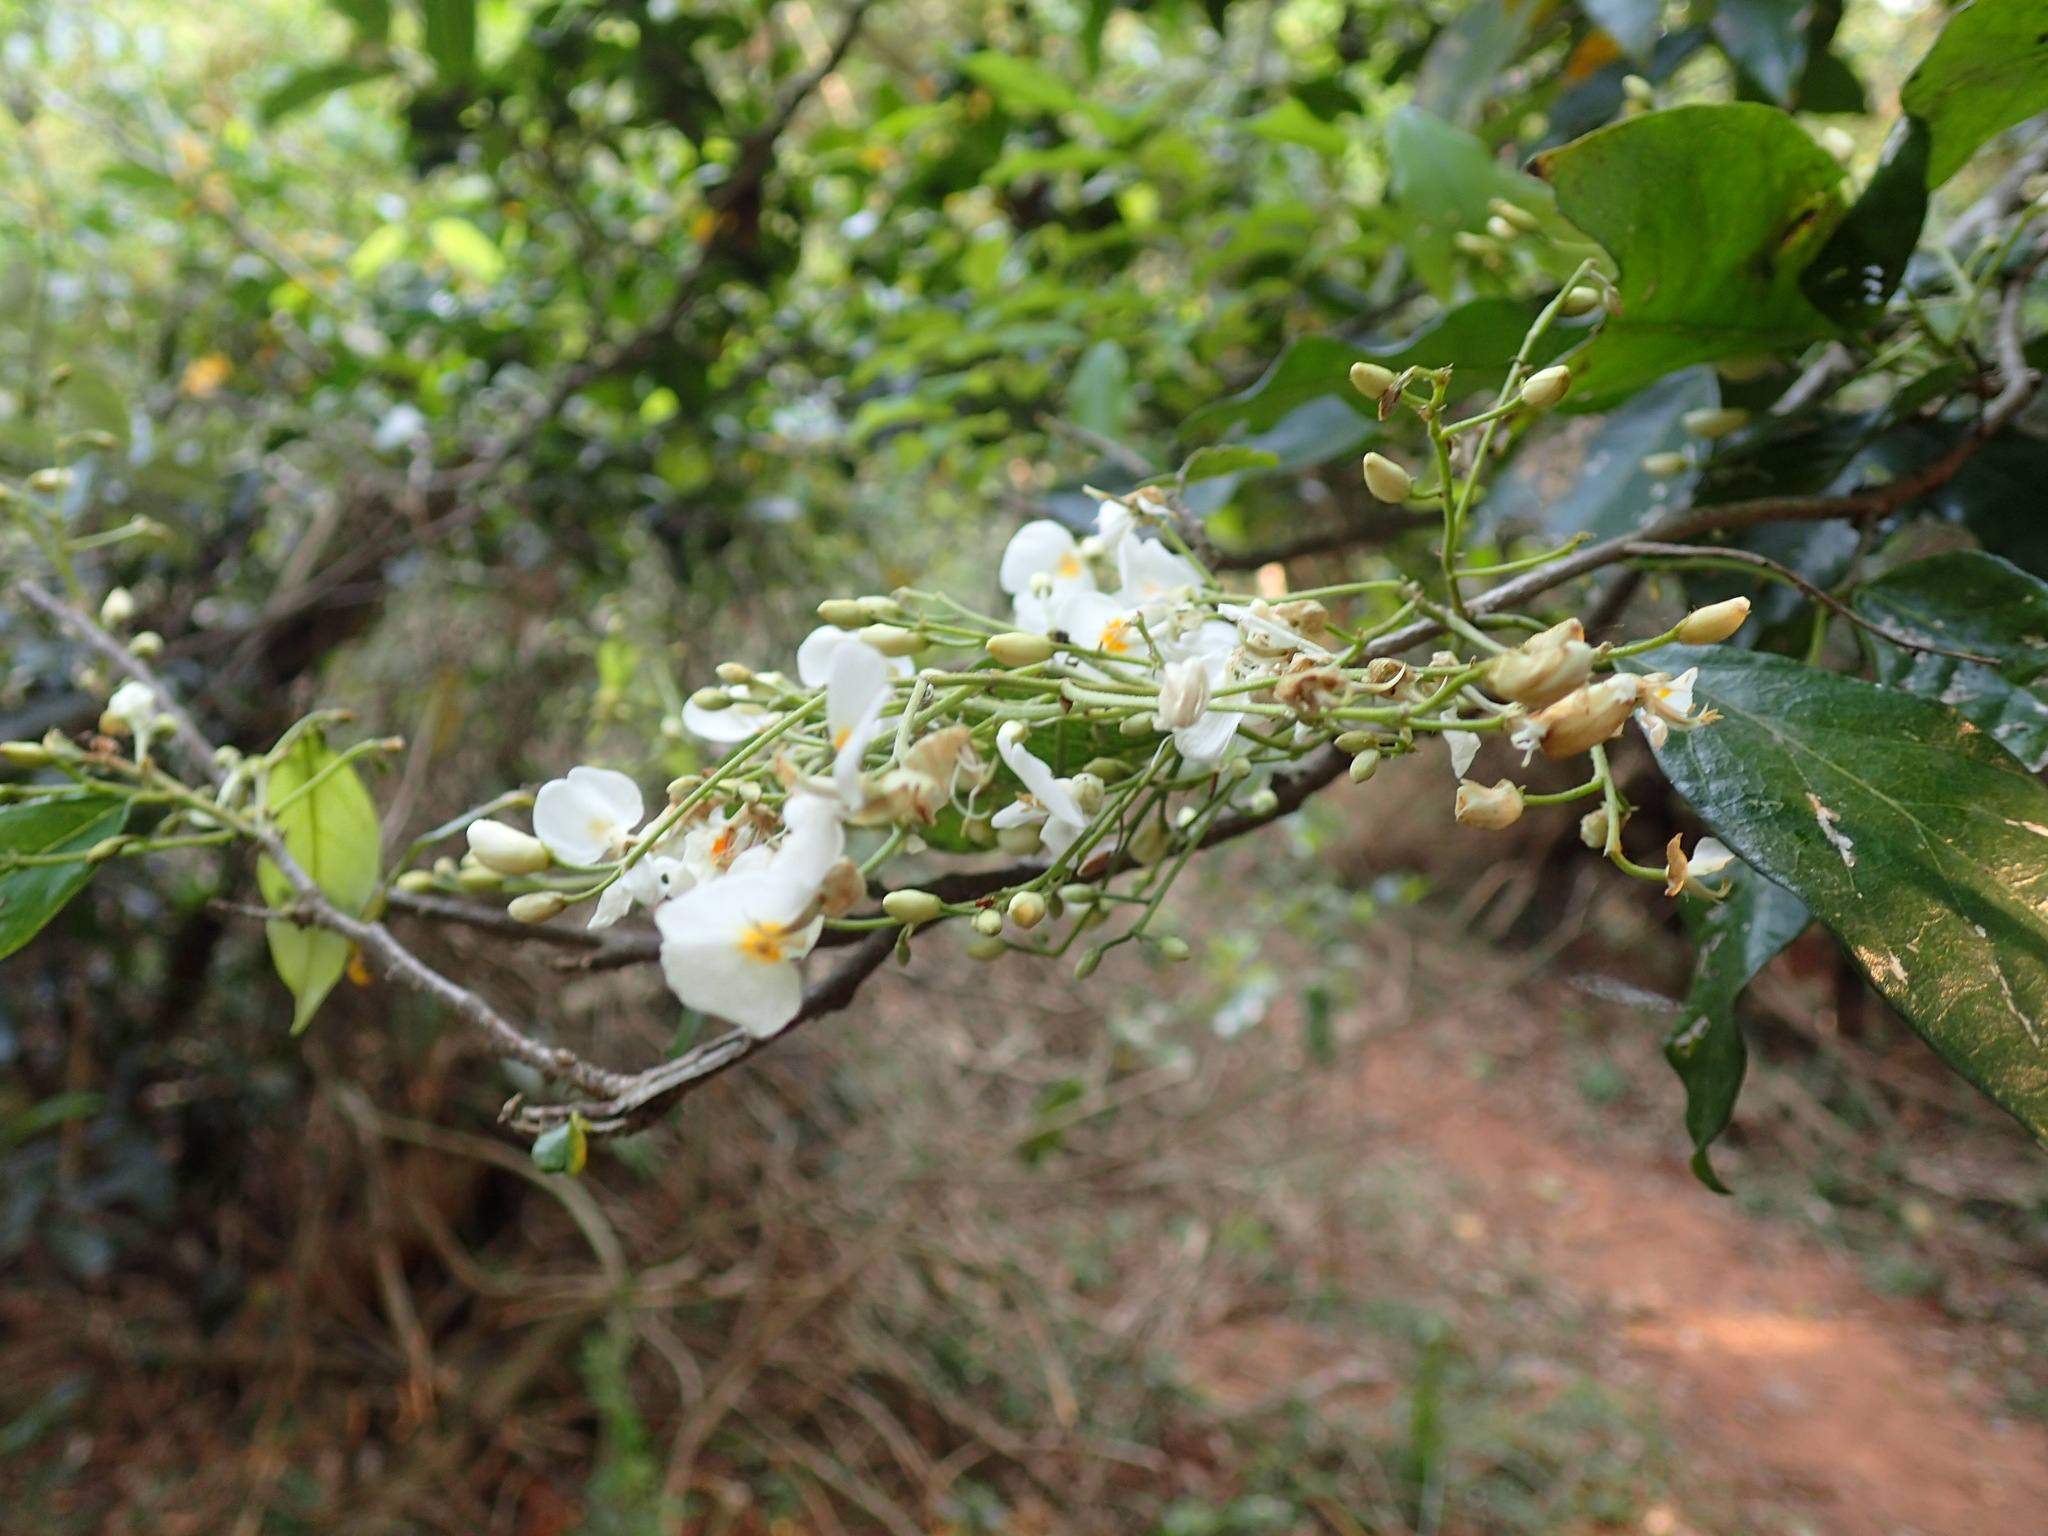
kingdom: Plantae
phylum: Tracheophyta
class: Magnoliopsida
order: Fabales
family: Fabaceae
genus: Bracteolaria
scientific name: Bracteolaria racemosa
